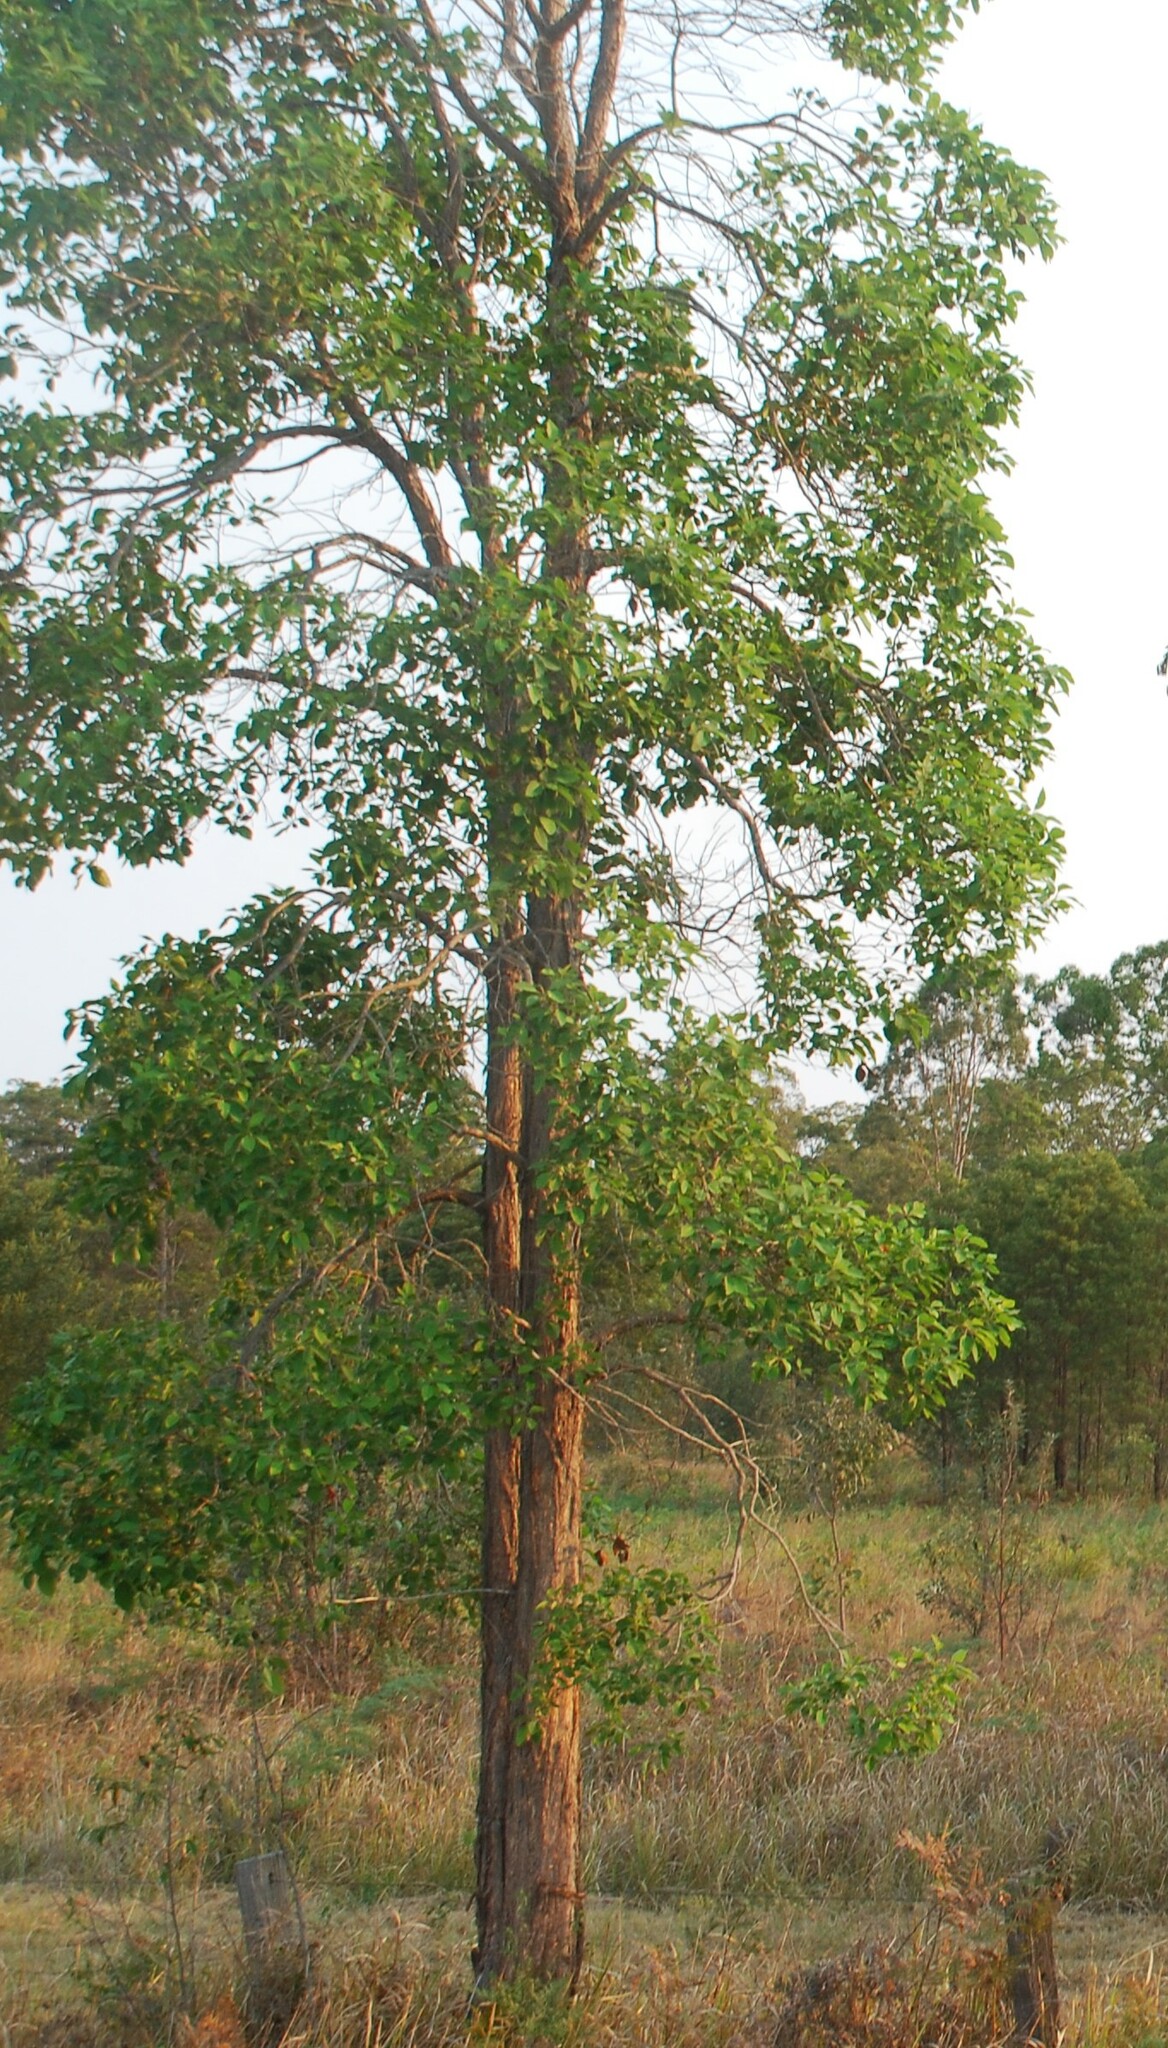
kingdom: Plantae
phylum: Tracheophyta
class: Magnoliopsida
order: Myrtales
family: Myrtaceae
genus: Lophostemon
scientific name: Lophostemon suaveolens
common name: Paperbark-mahogany
